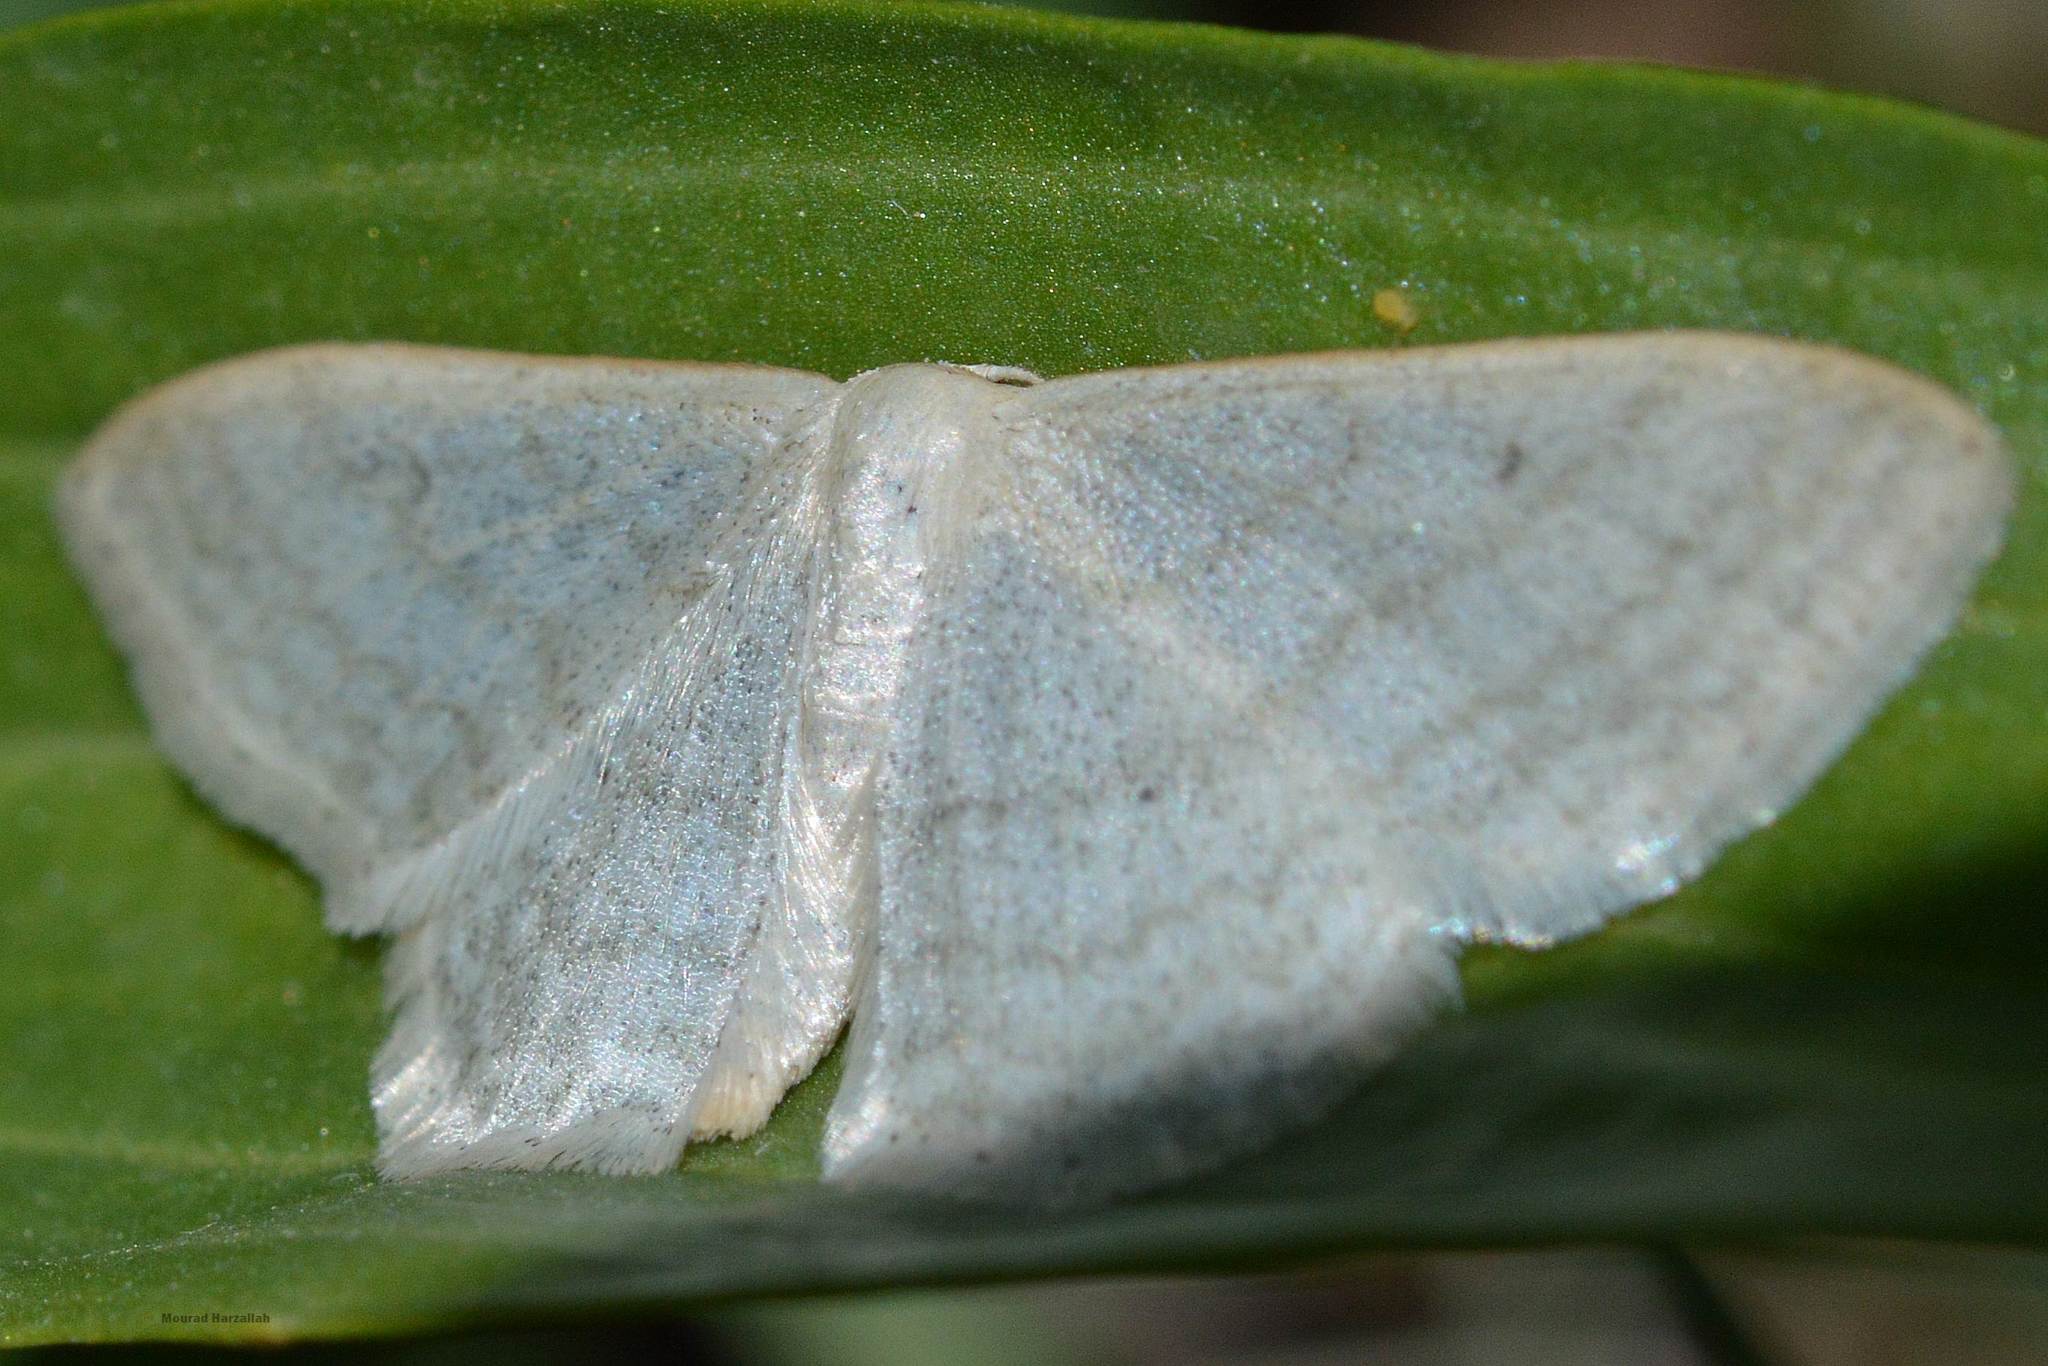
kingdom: Animalia
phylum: Arthropoda
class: Insecta
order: Lepidoptera
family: Geometridae
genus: Idaea
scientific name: Idaea subsericeata
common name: Satin wave
